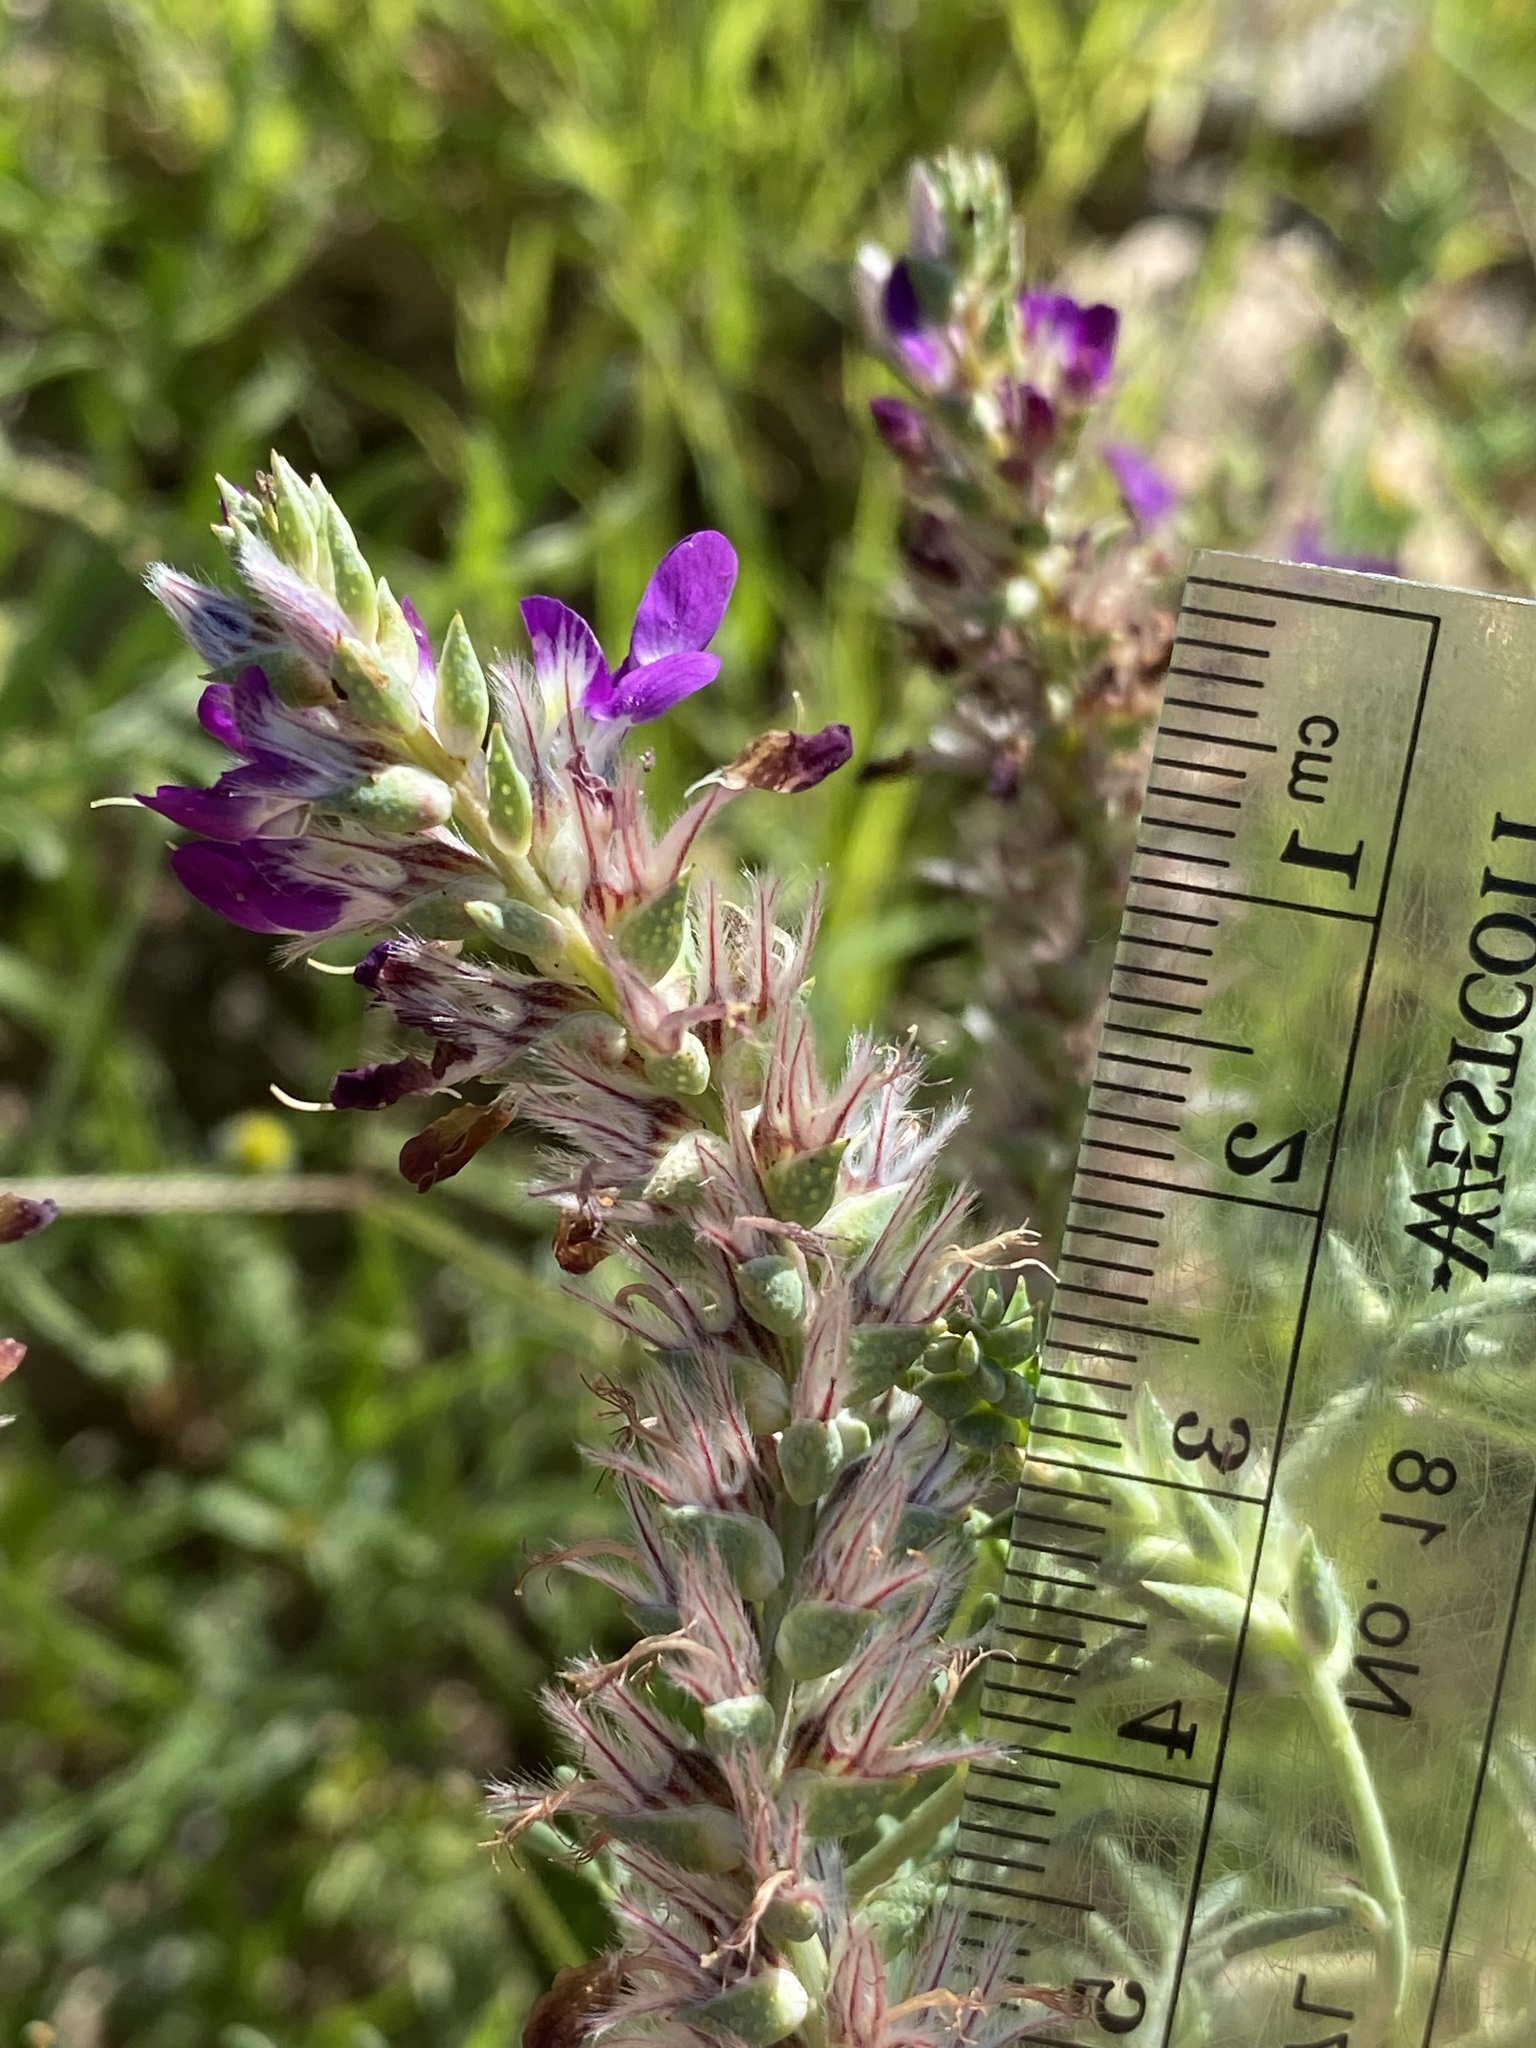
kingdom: Plantae
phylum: Tracheophyta
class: Magnoliopsida
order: Fabales
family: Fabaceae
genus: Dalea
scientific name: Dalea pogonathera
